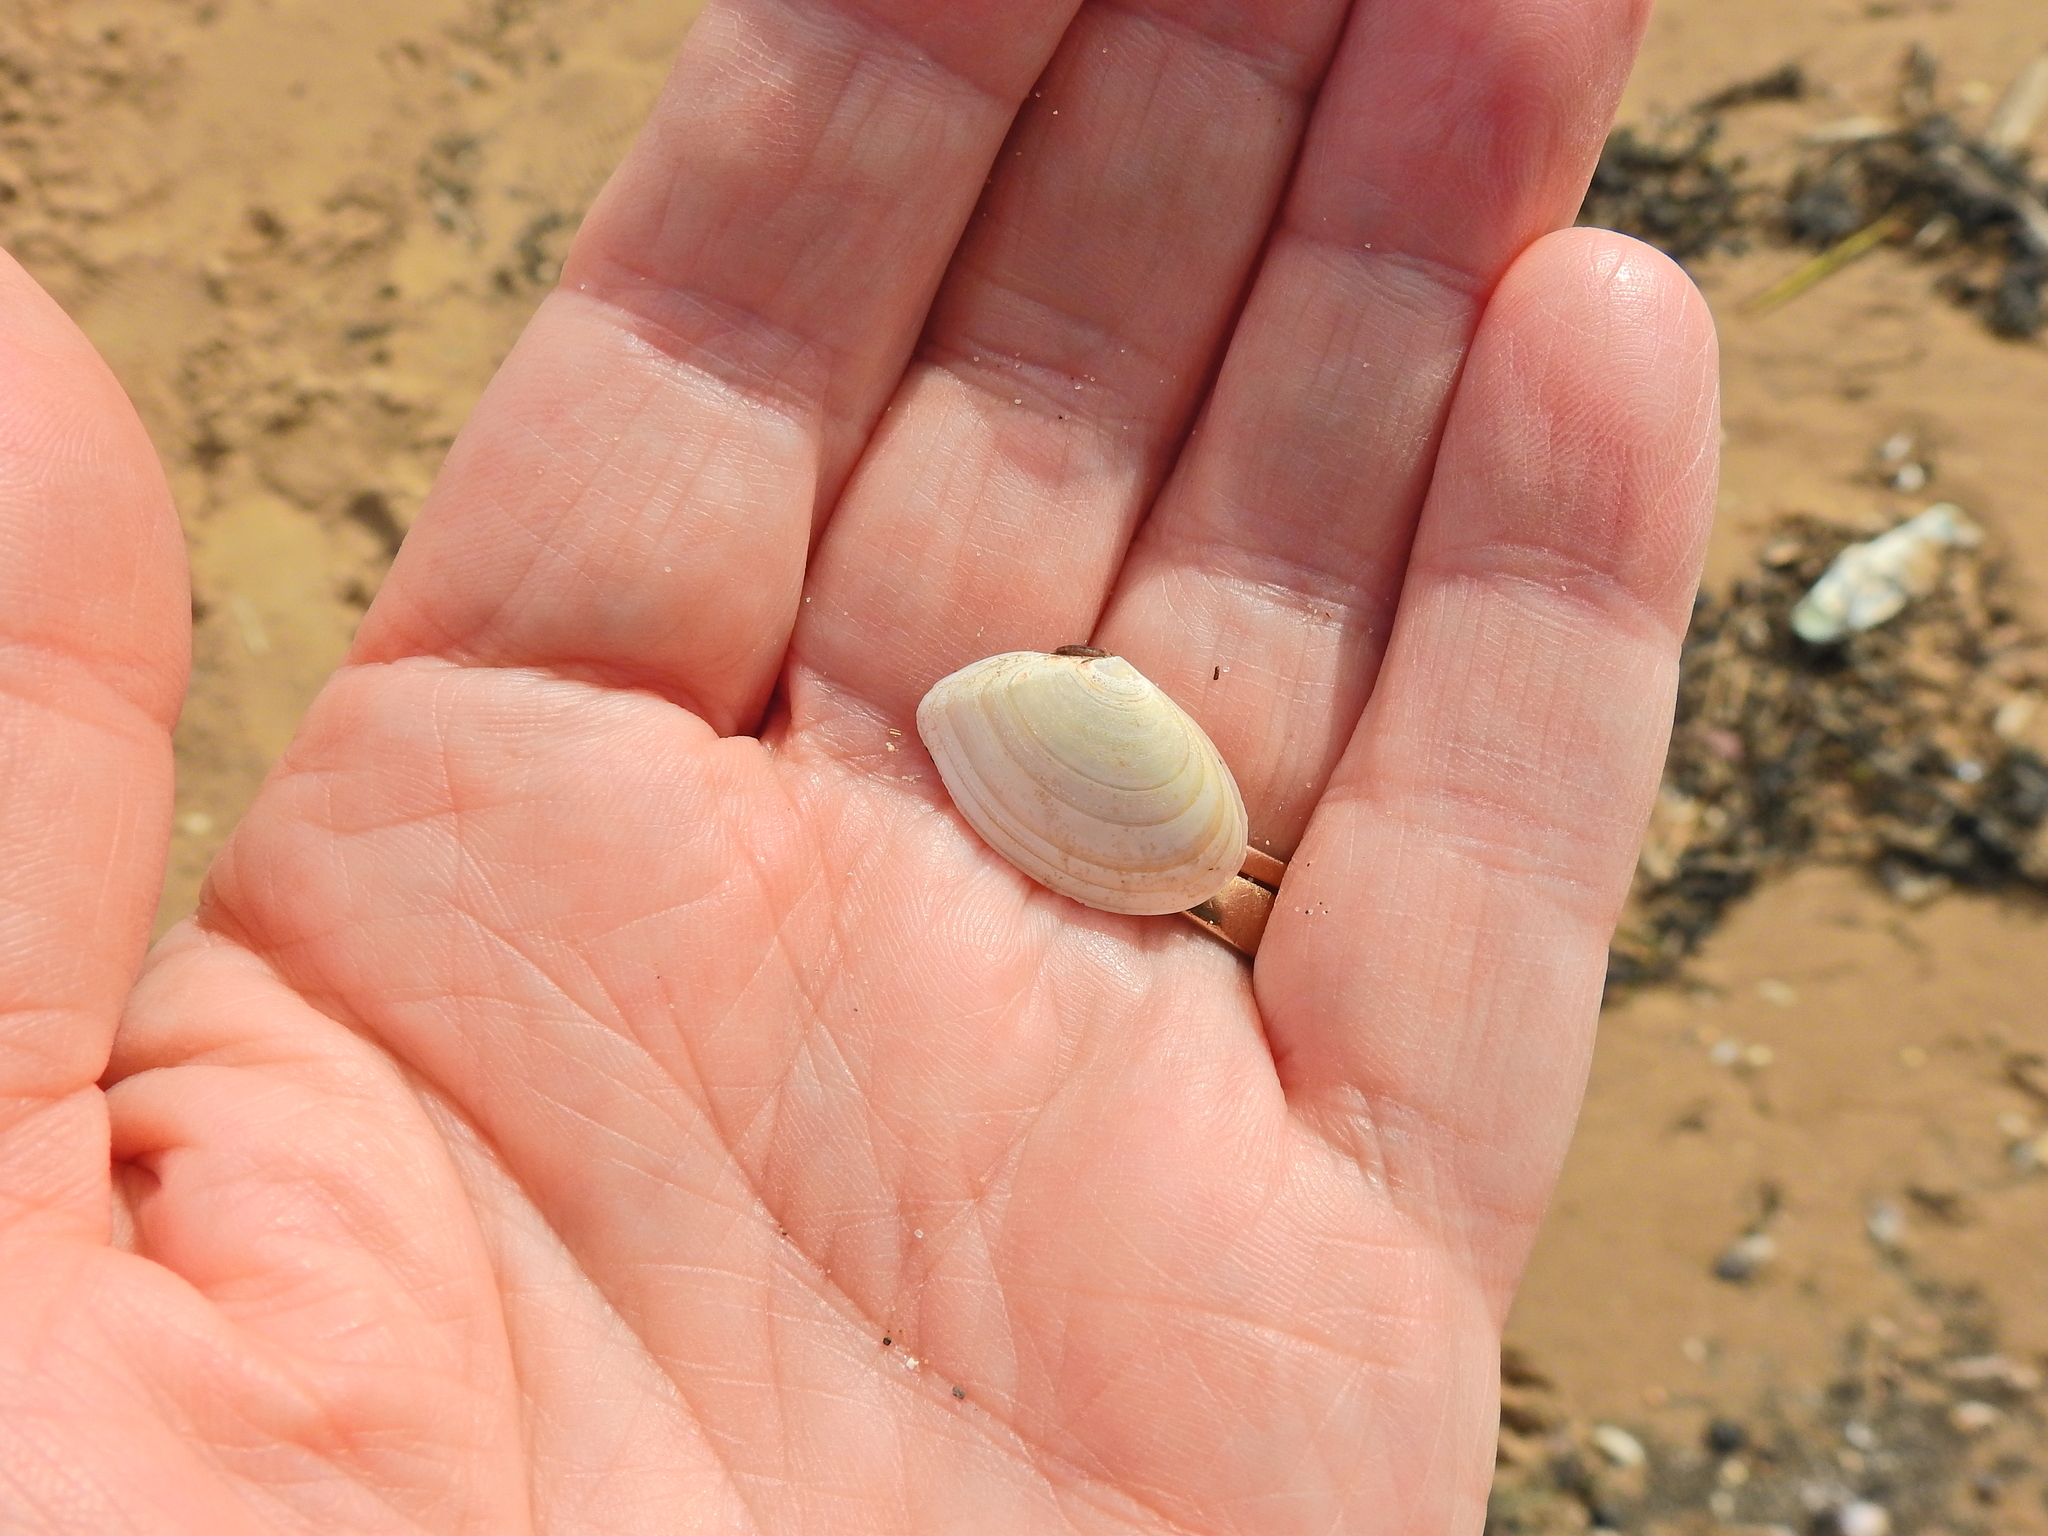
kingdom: Animalia
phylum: Mollusca
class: Bivalvia
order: Cardiida
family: Tellinidae
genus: Macomangulus
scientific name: Macomangulus tenuis
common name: Thin tellin
